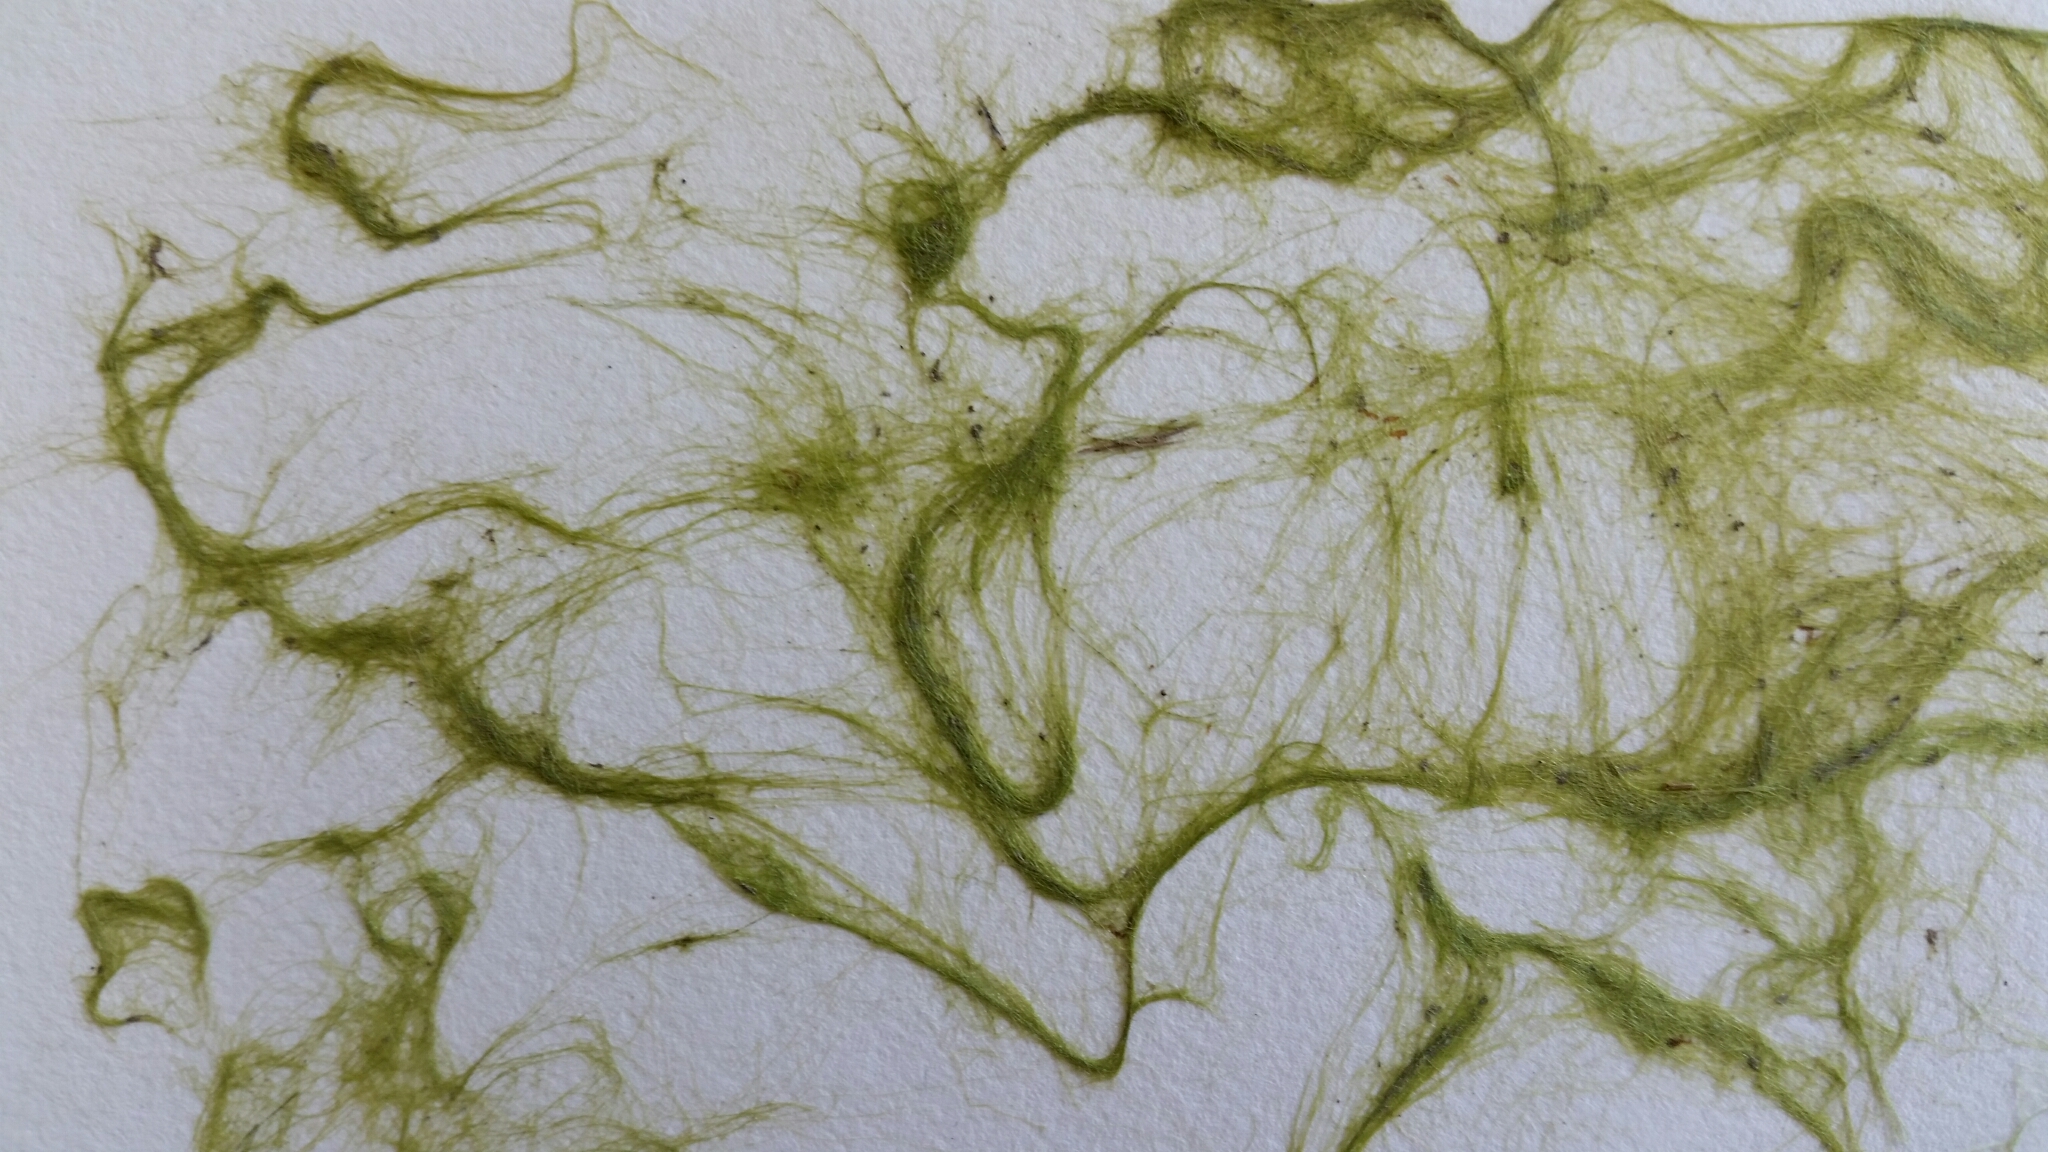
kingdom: Plantae
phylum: Chlorophyta
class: Ulvophyceae
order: Cladophorales
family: Cladophoraceae
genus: Chaetomorpha
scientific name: Chaetomorpha ligustica
